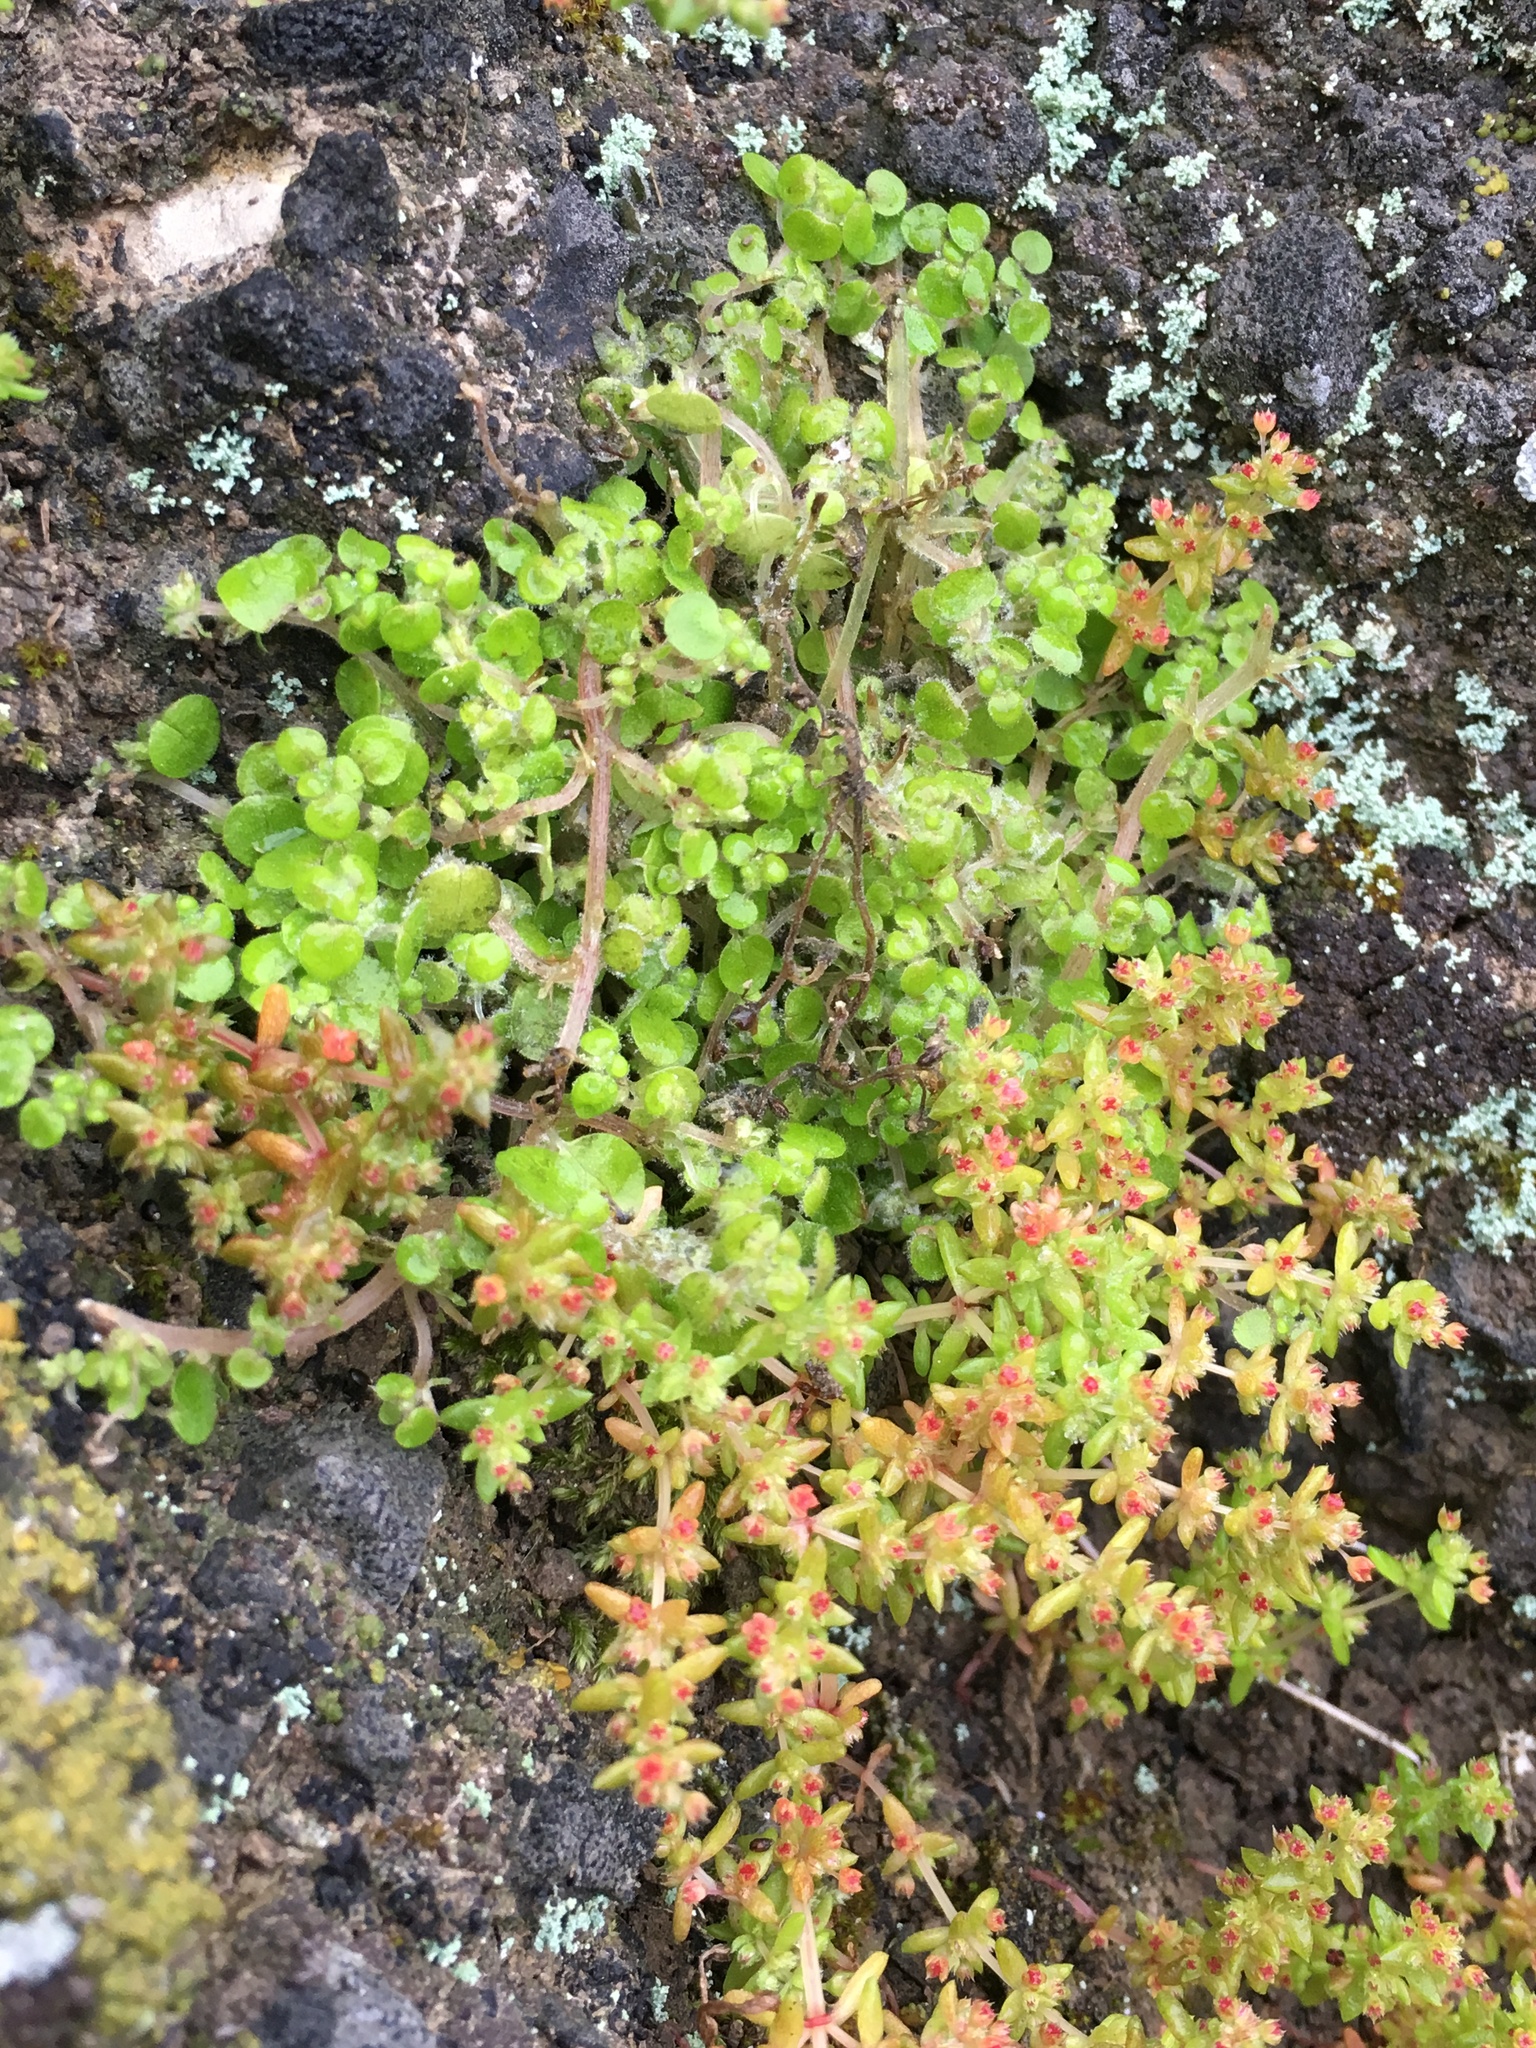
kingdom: Plantae
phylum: Tracheophyta
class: Magnoliopsida
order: Rosales
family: Urticaceae
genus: Parietaria
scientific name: Parietaria hespera
